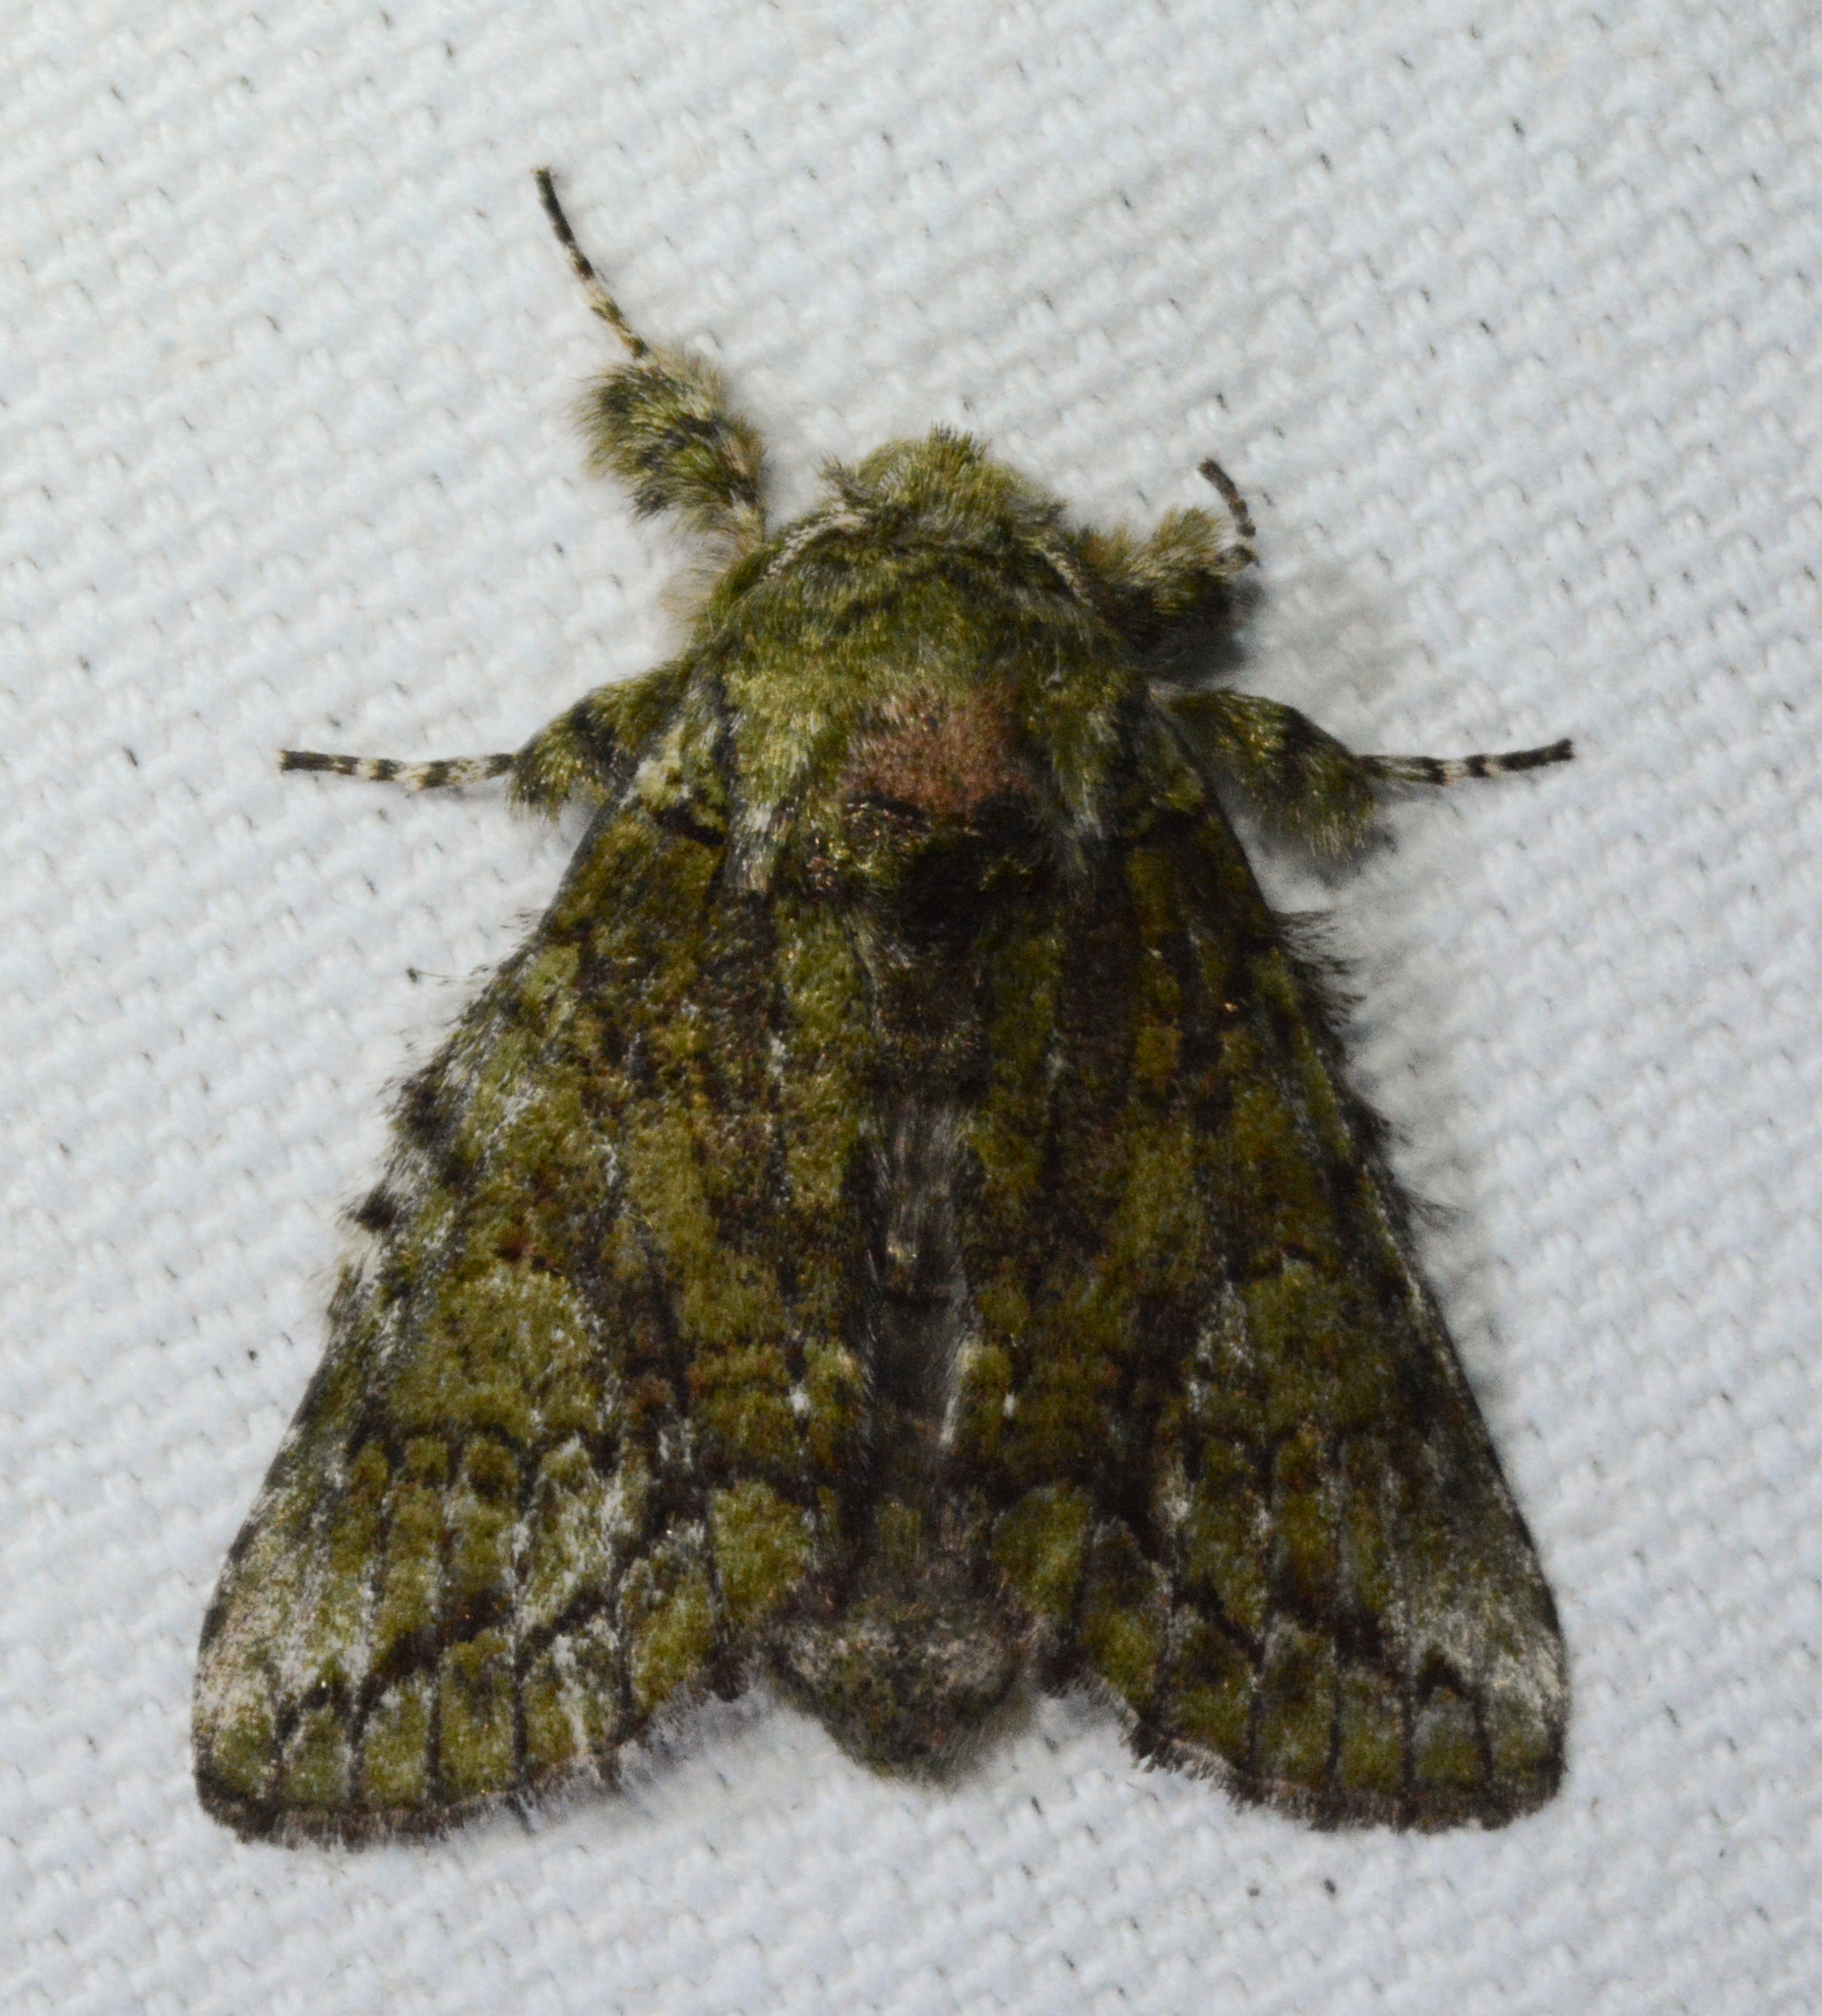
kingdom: Animalia
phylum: Arthropoda
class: Insecta
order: Lepidoptera
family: Notodontidae
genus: Heterocampa
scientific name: Heterocampa
